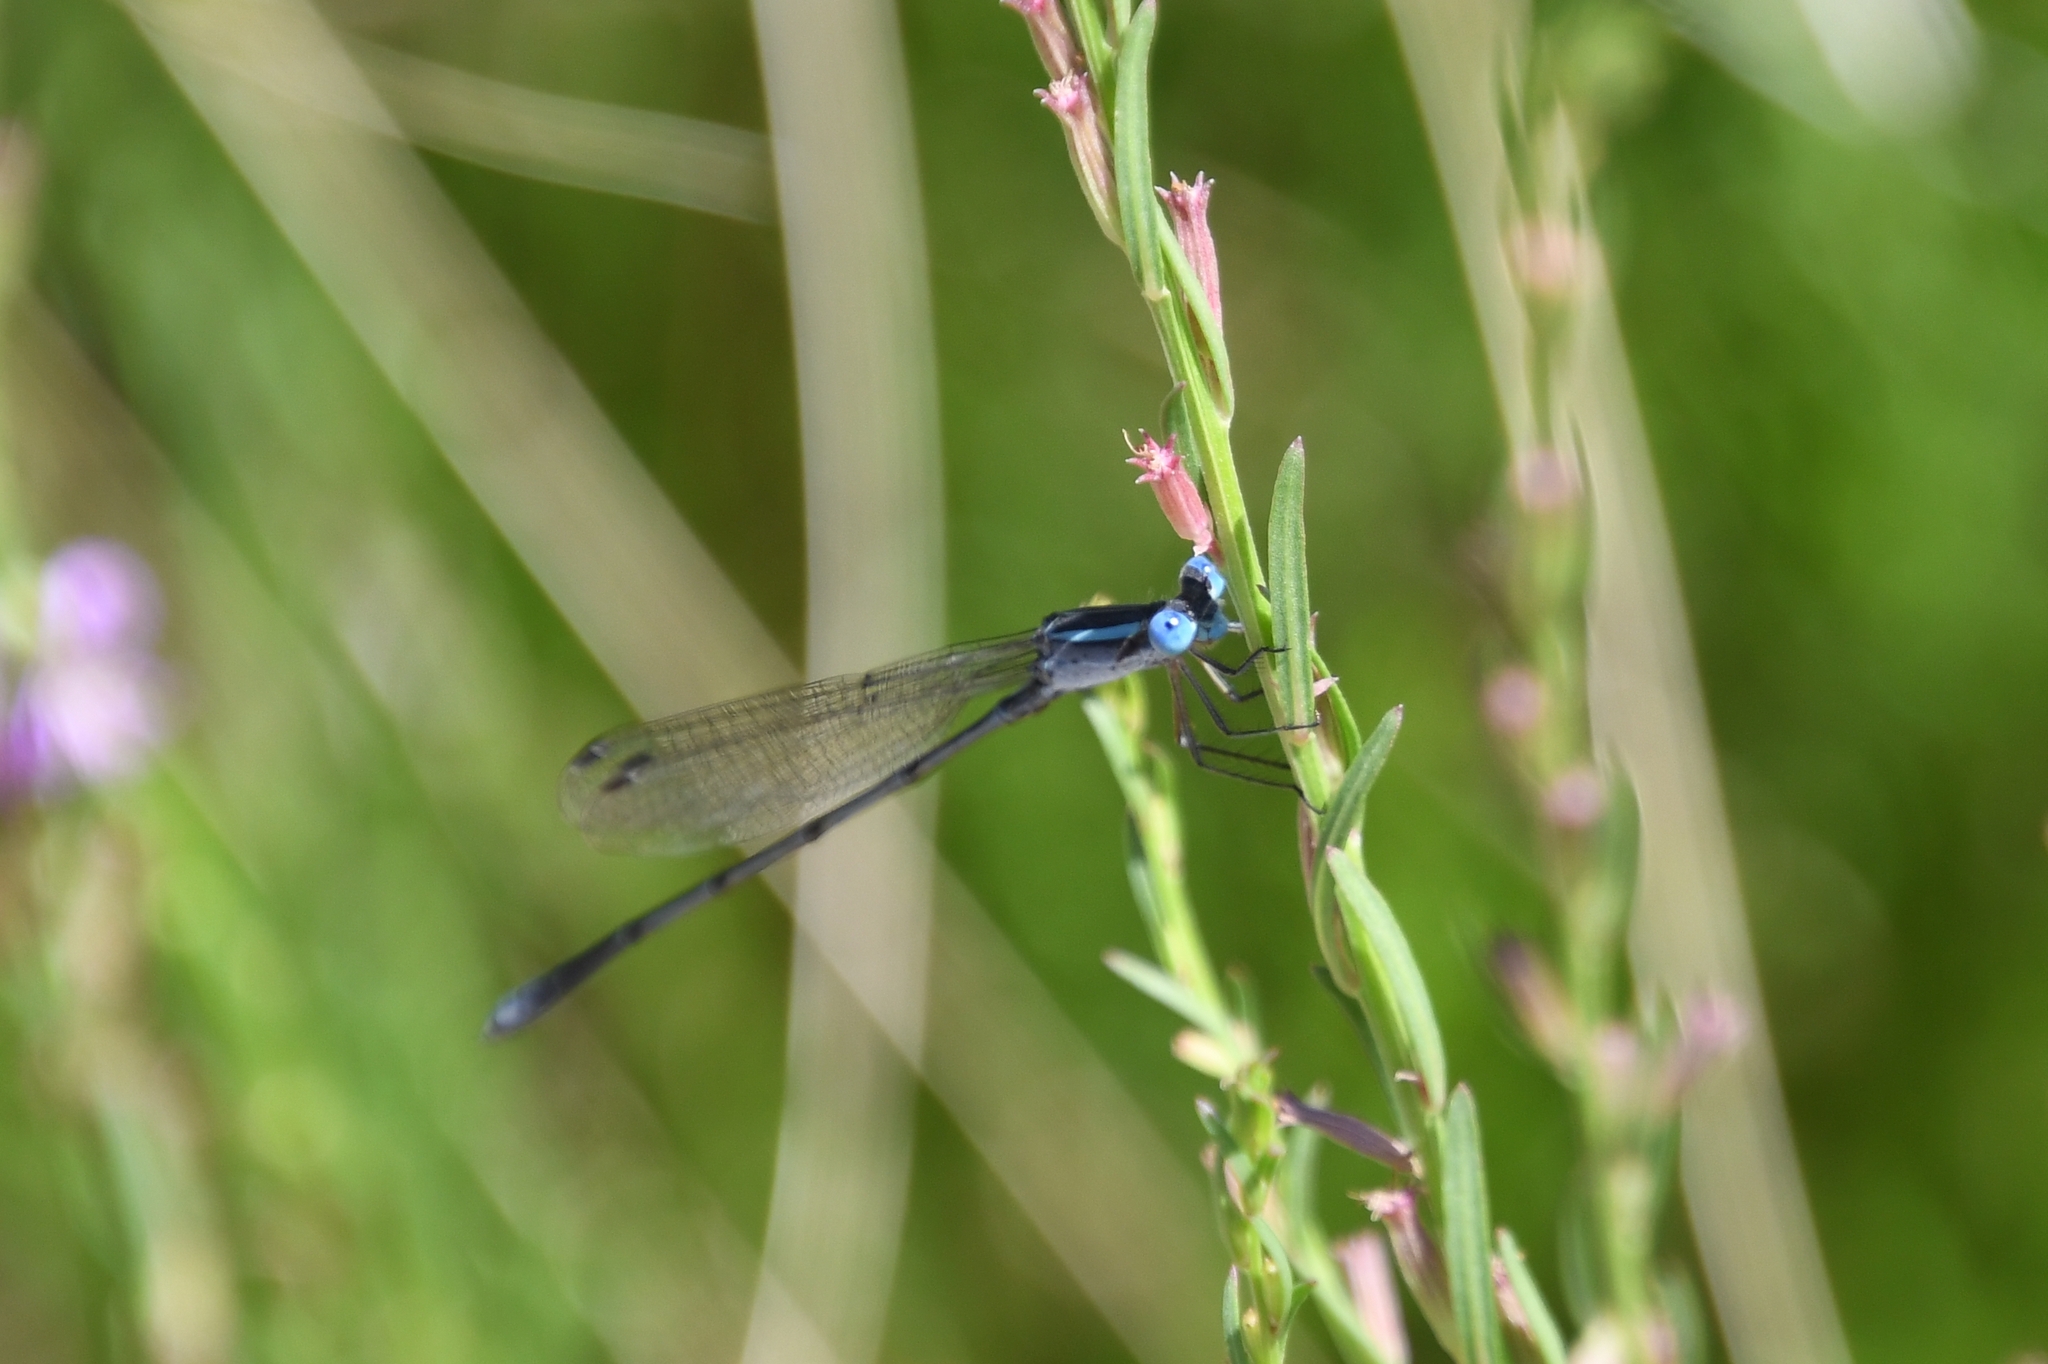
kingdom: Animalia
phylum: Arthropoda
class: Insecta
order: Odonata
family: Lestidae
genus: Lestes
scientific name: Lestes alacer
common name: Plateau spreadwing
